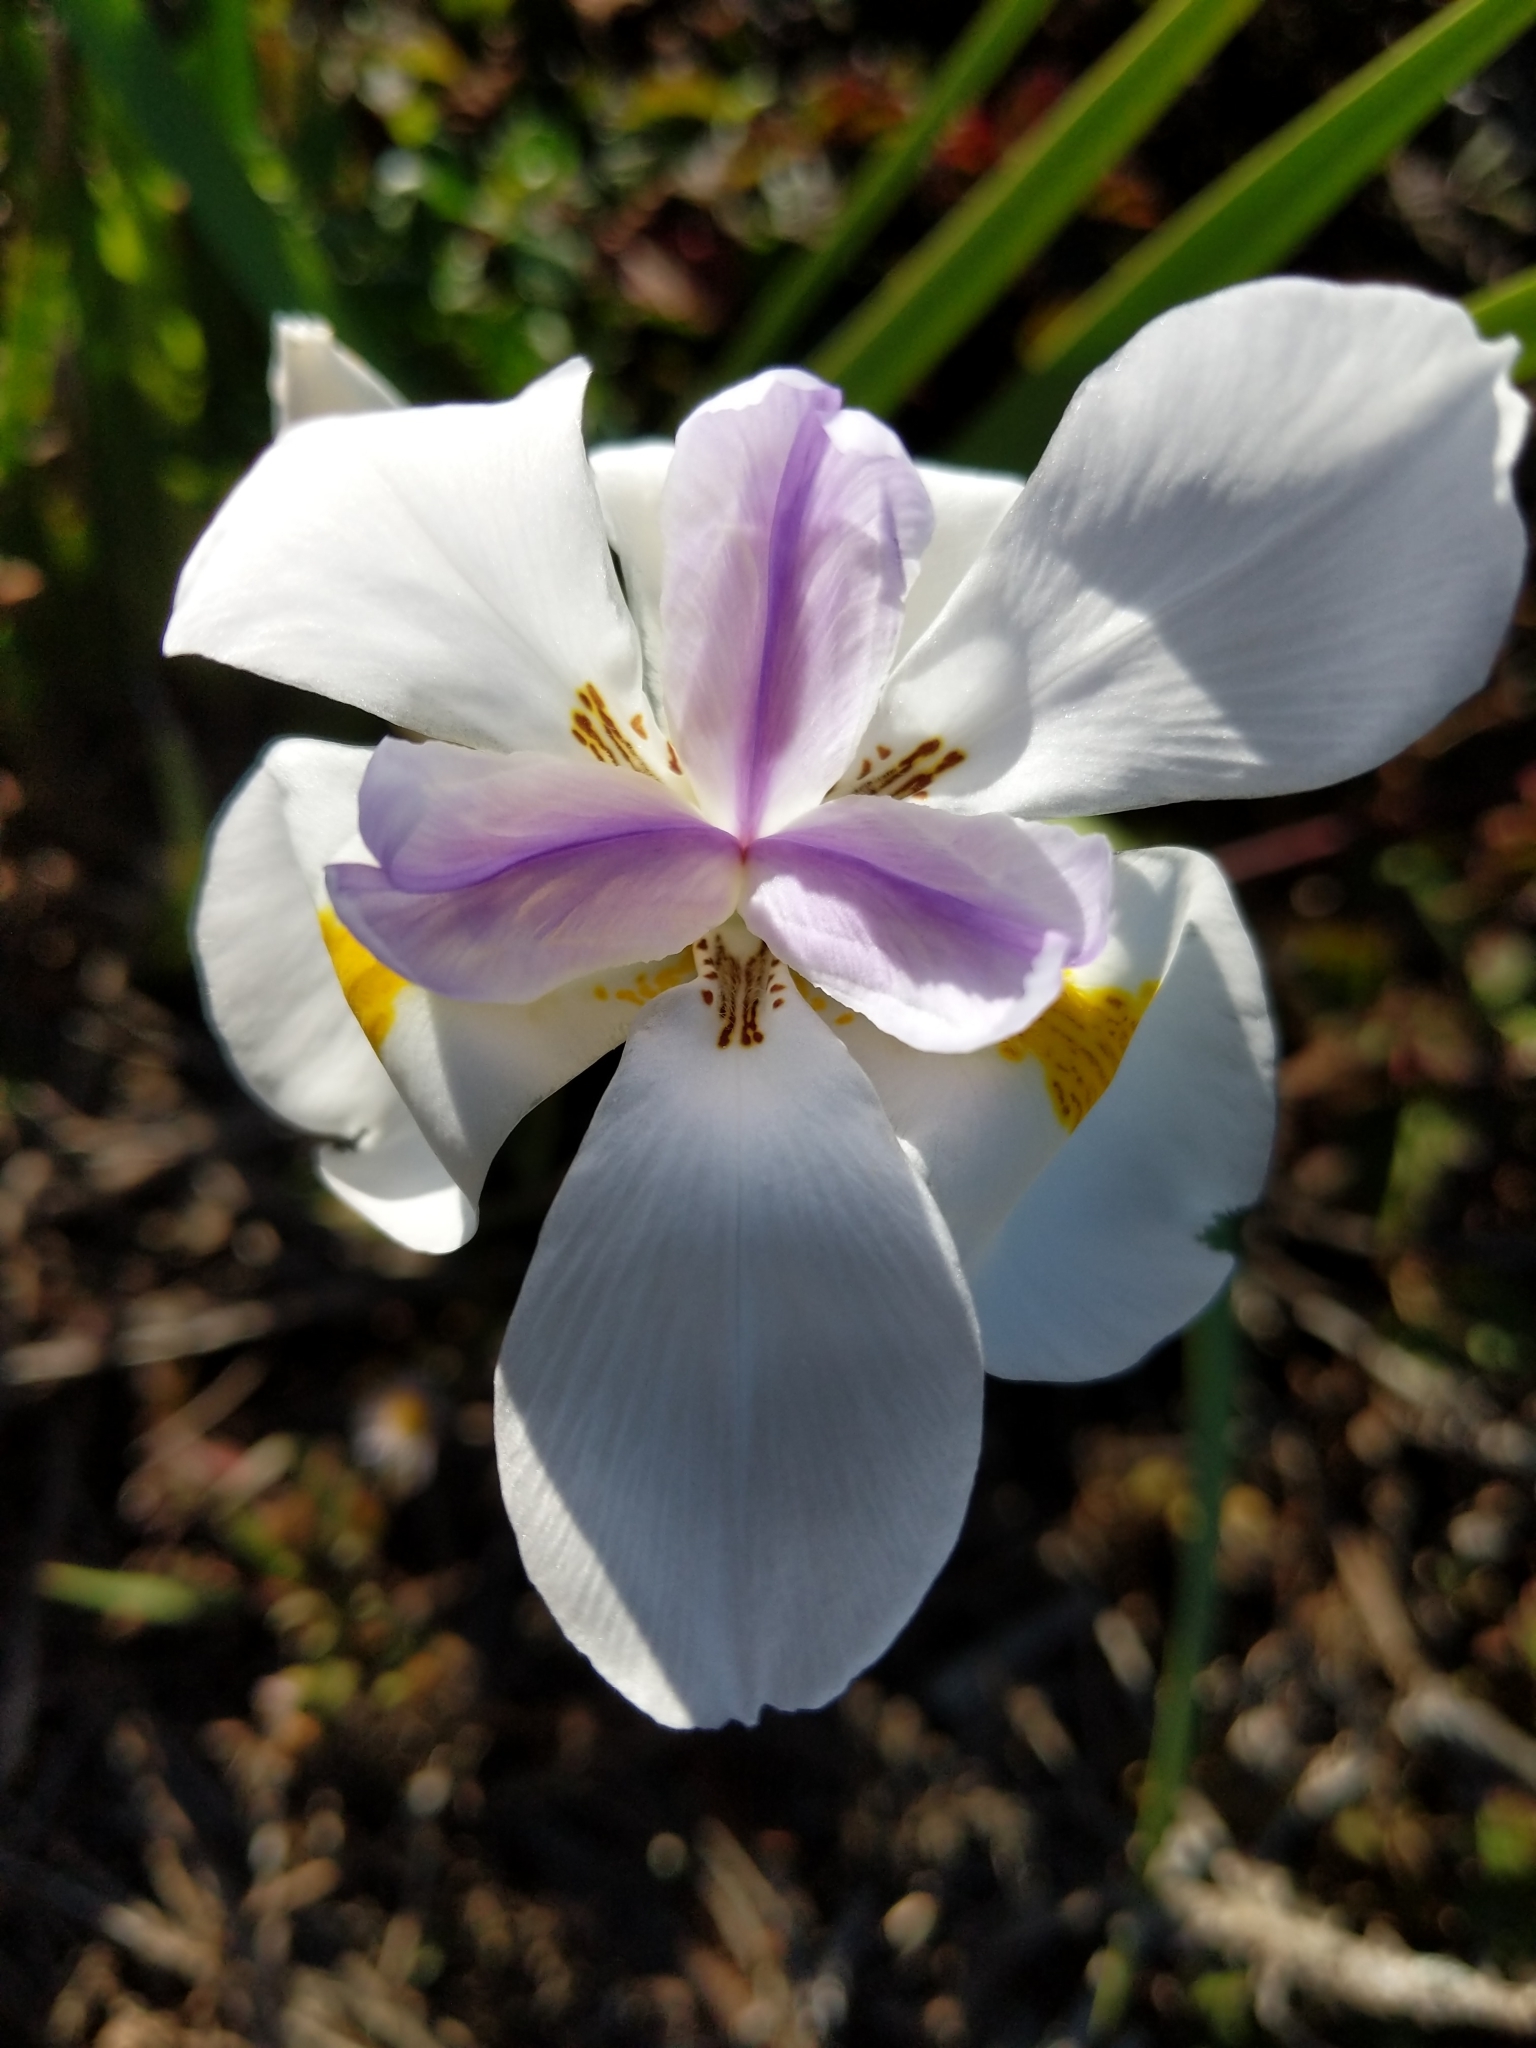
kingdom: Plantae
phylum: Tracheophyta
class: Liliopsida
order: Asparagales
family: Iridaceae
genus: Dietes
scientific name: Dietes grandiflora
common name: Wild iris
